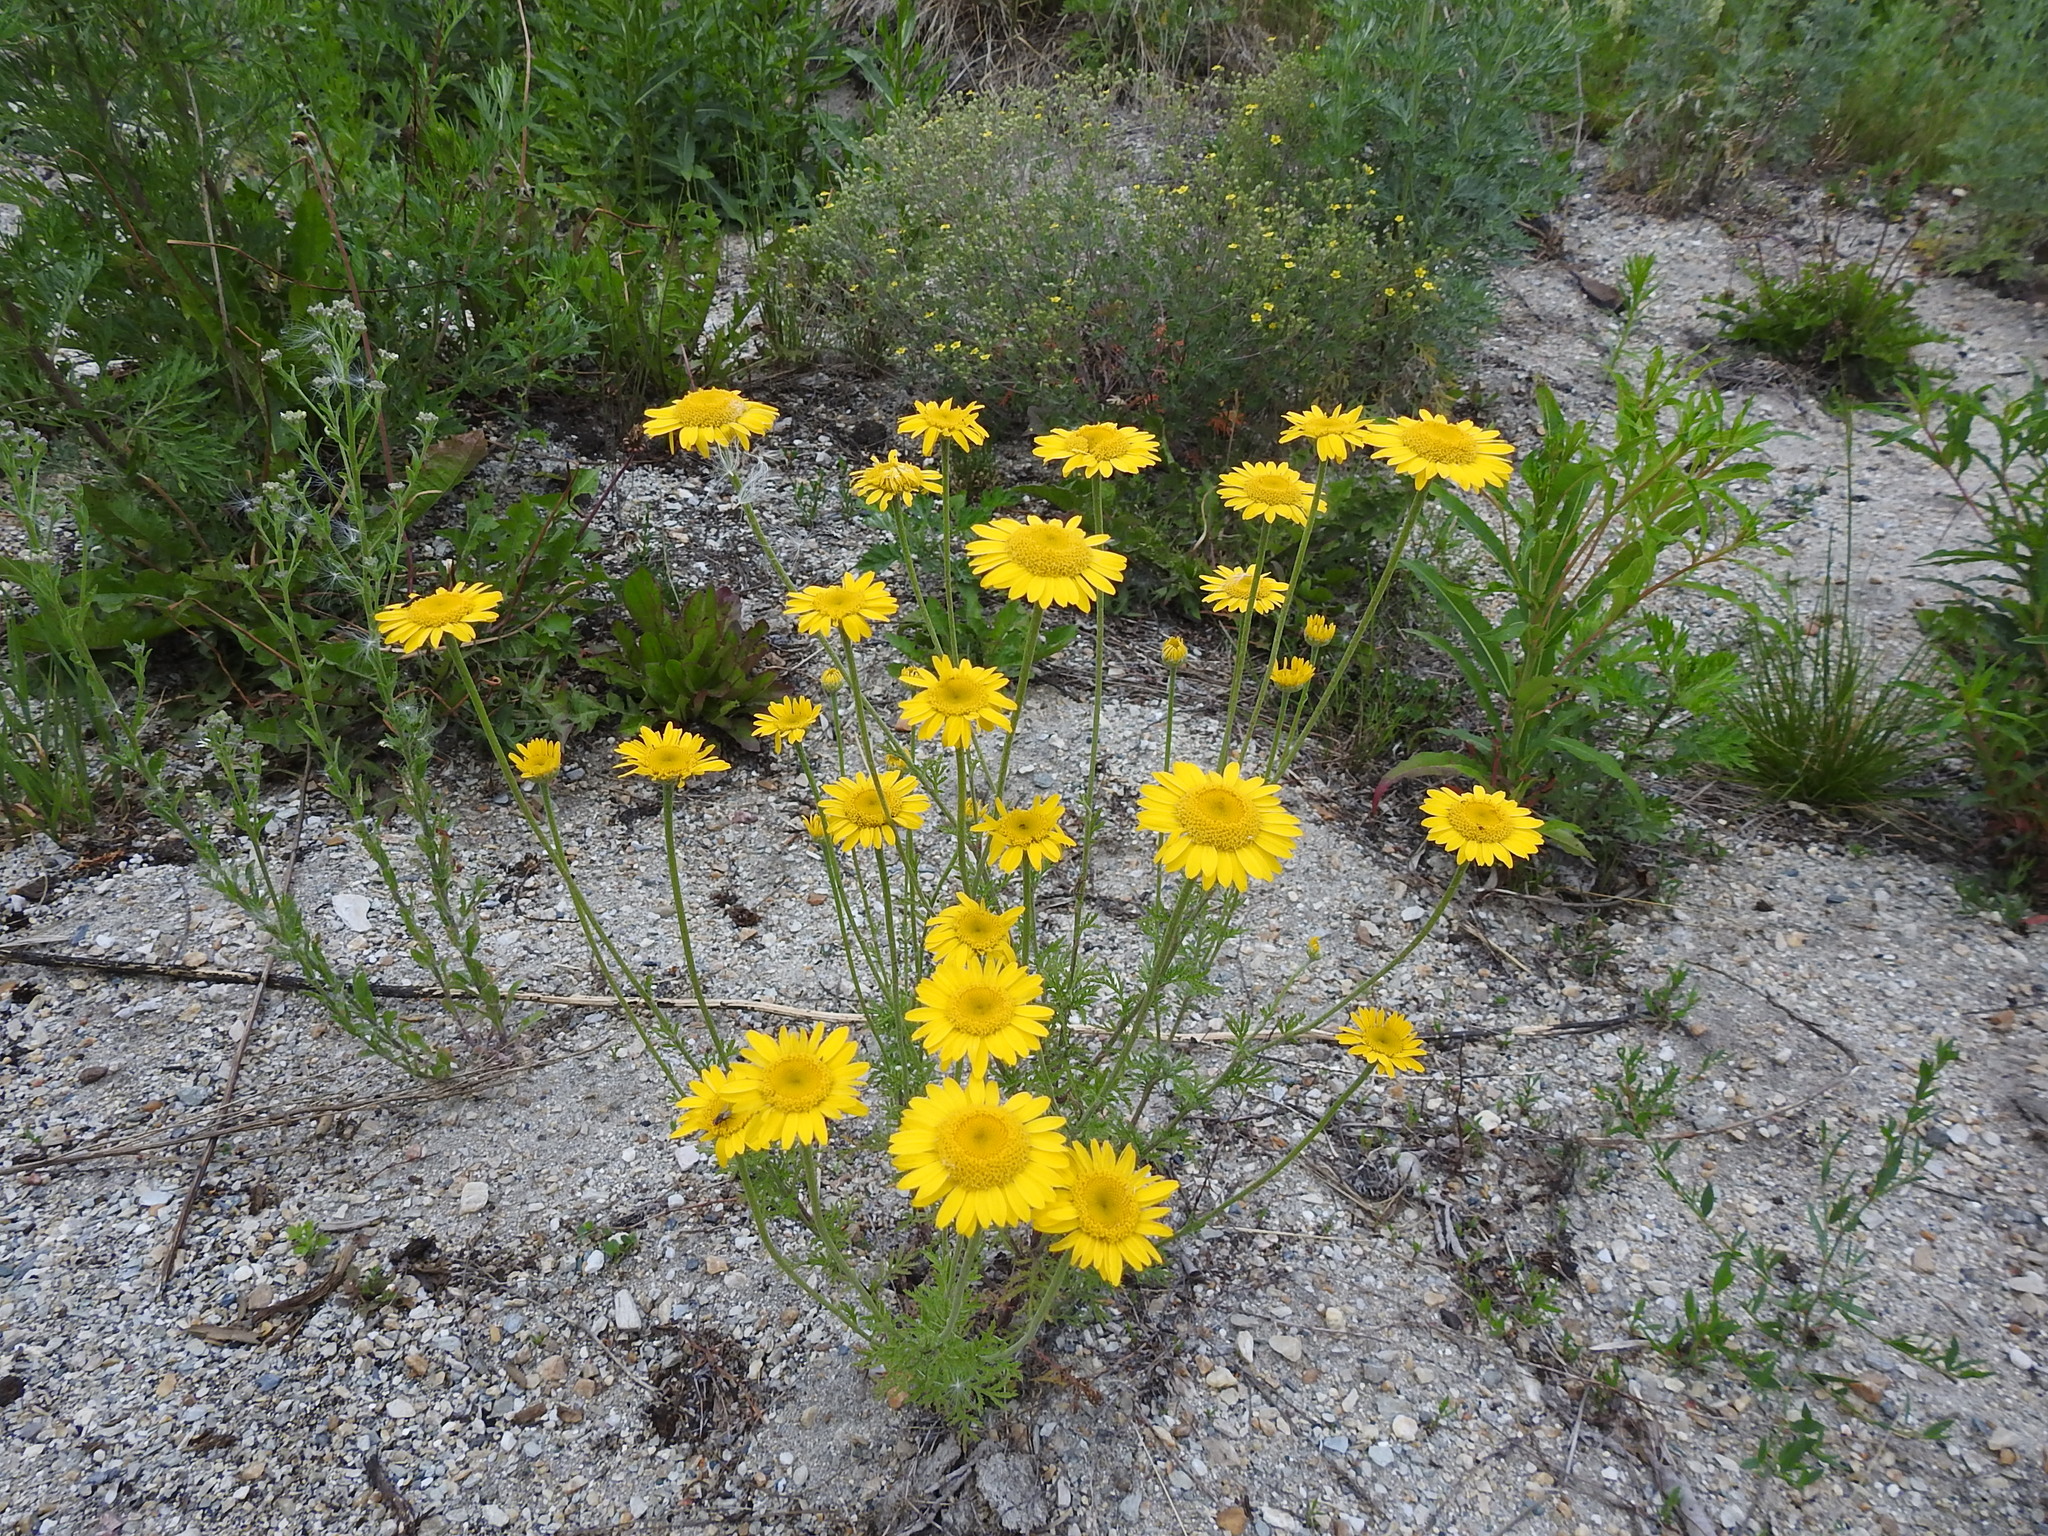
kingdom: Plantae
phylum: Tracheophyta
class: Magnoliopsida
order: Asterales
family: Asteraceae
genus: Cota
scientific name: Cota tinctoria
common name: Golden chamomile
